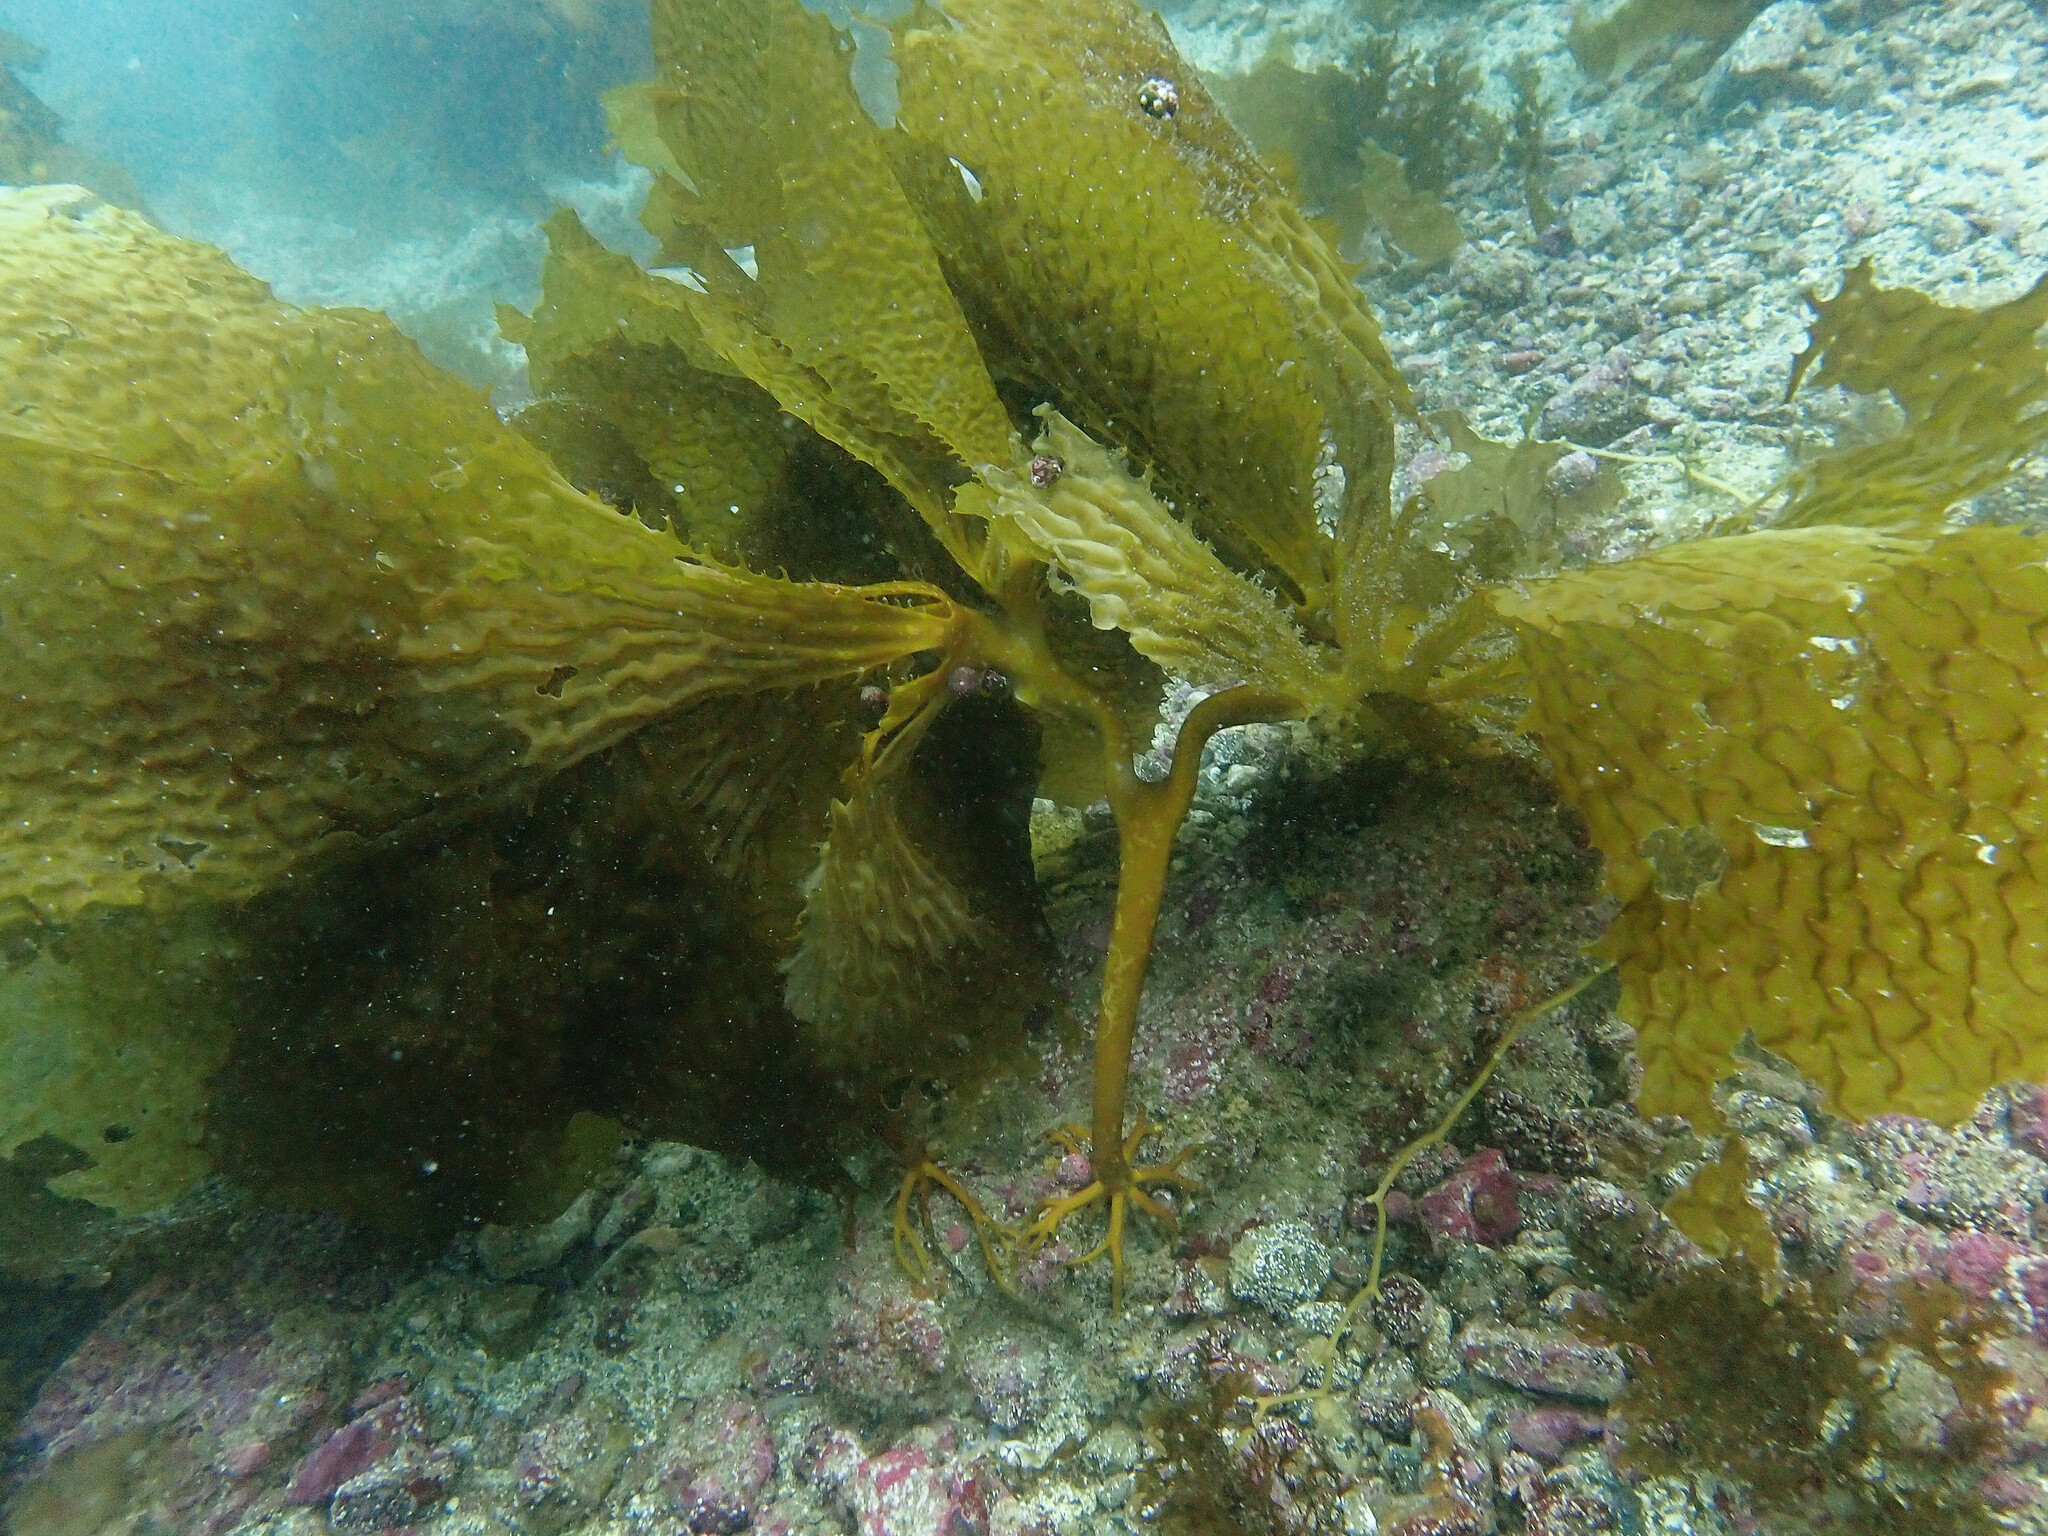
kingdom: Chromista
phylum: Ochrophyta
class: Phaeophyceae
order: Laminariales
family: Lessoniaceae
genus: Eisenia
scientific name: Eisenia arborea
